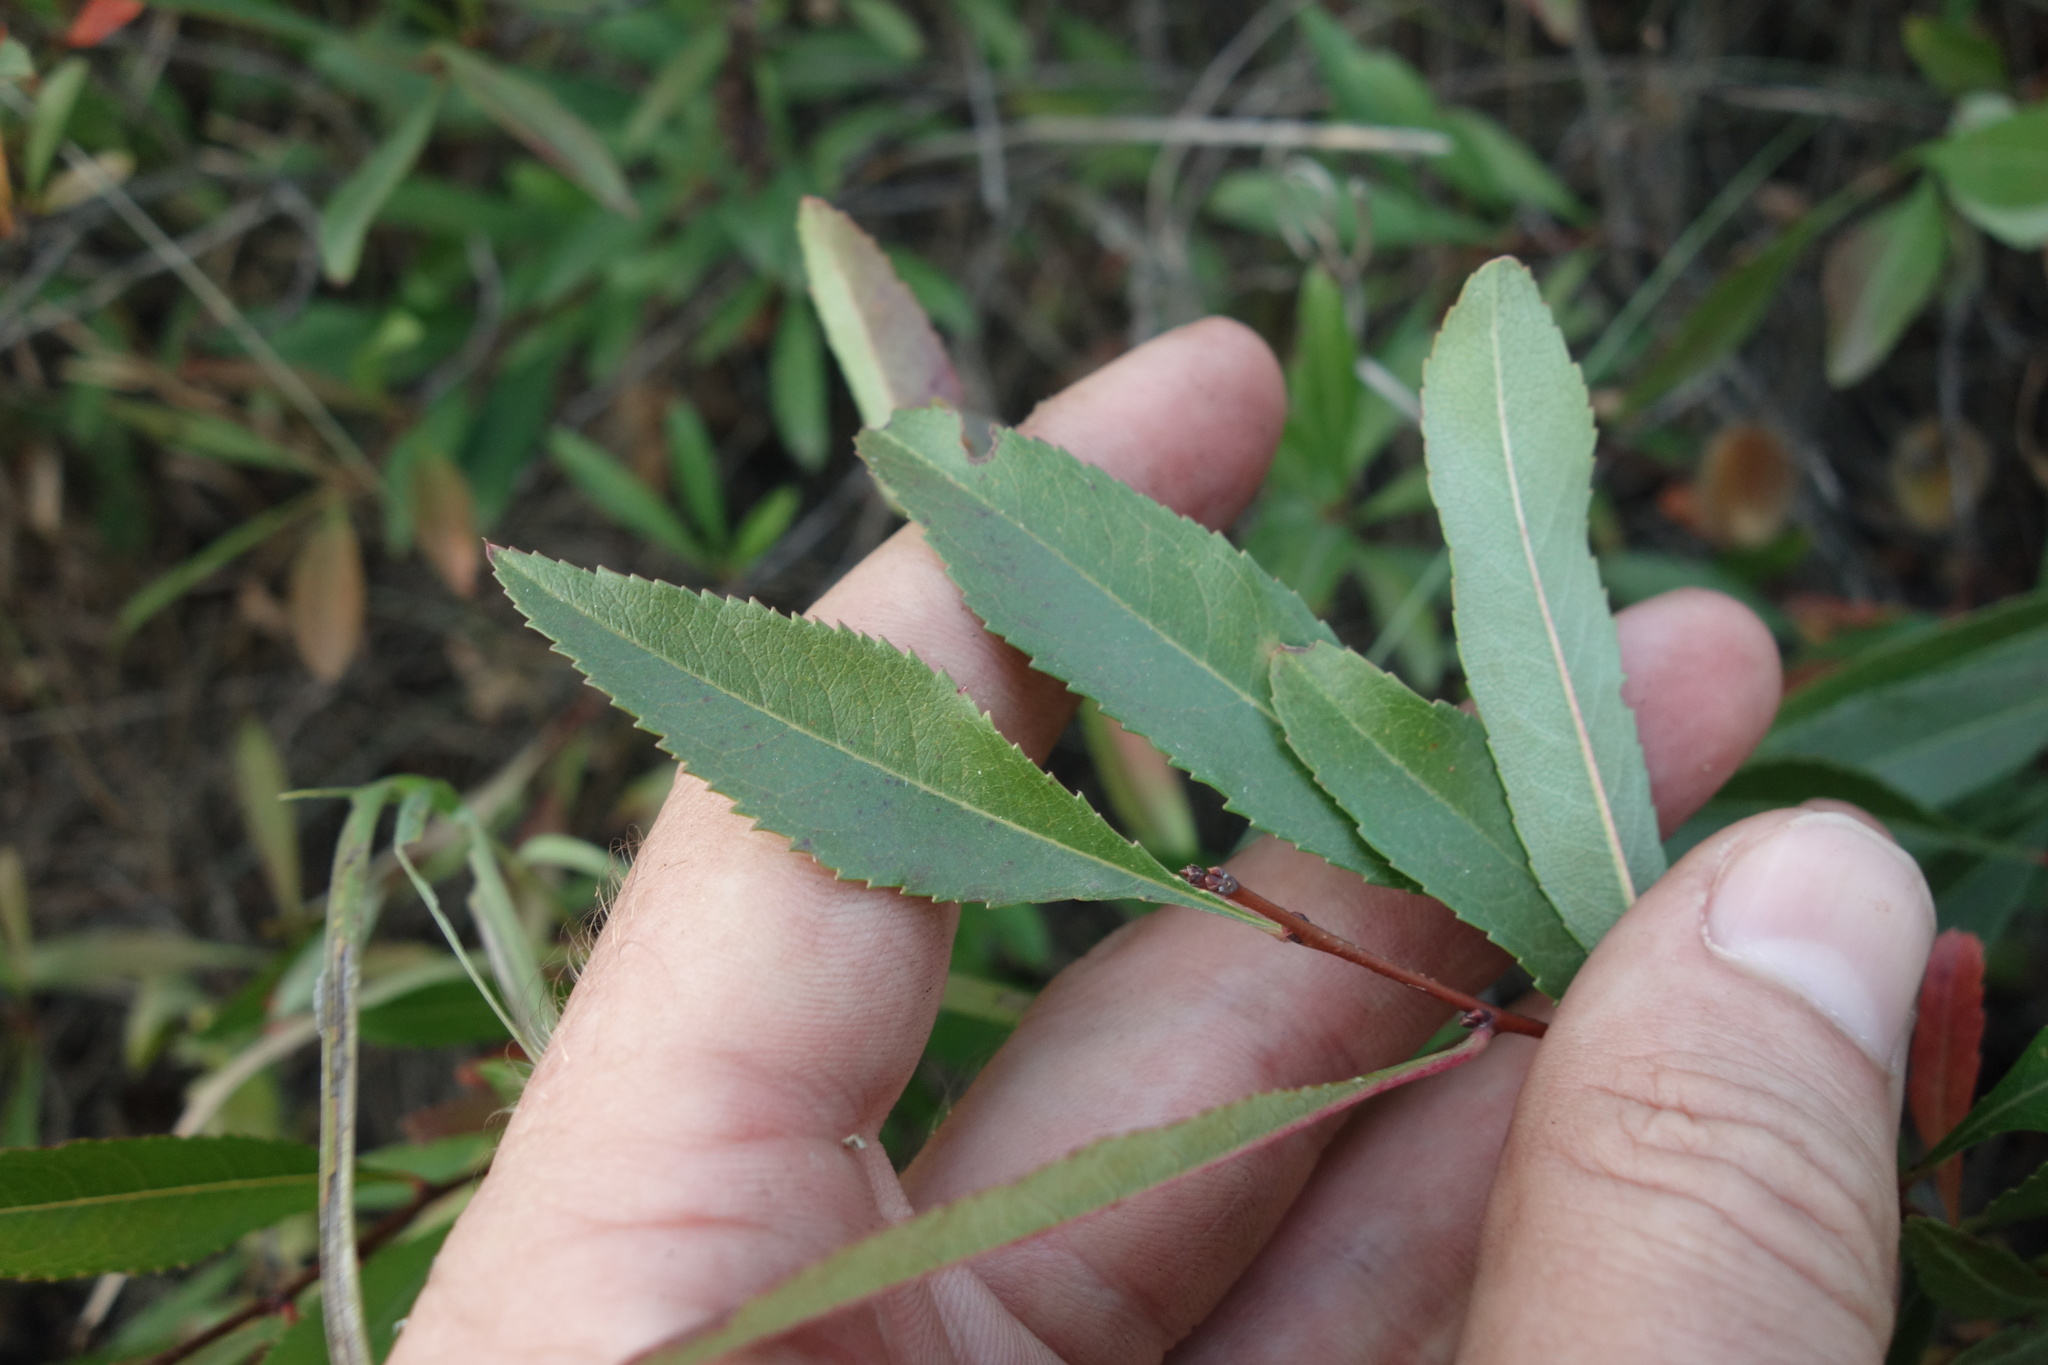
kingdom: Plantae
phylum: Tracheophyta
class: Magnoliopsida
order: Rosales
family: Rosaceae
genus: Prunus
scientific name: Prunus tenella
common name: Dwarf russian almond
